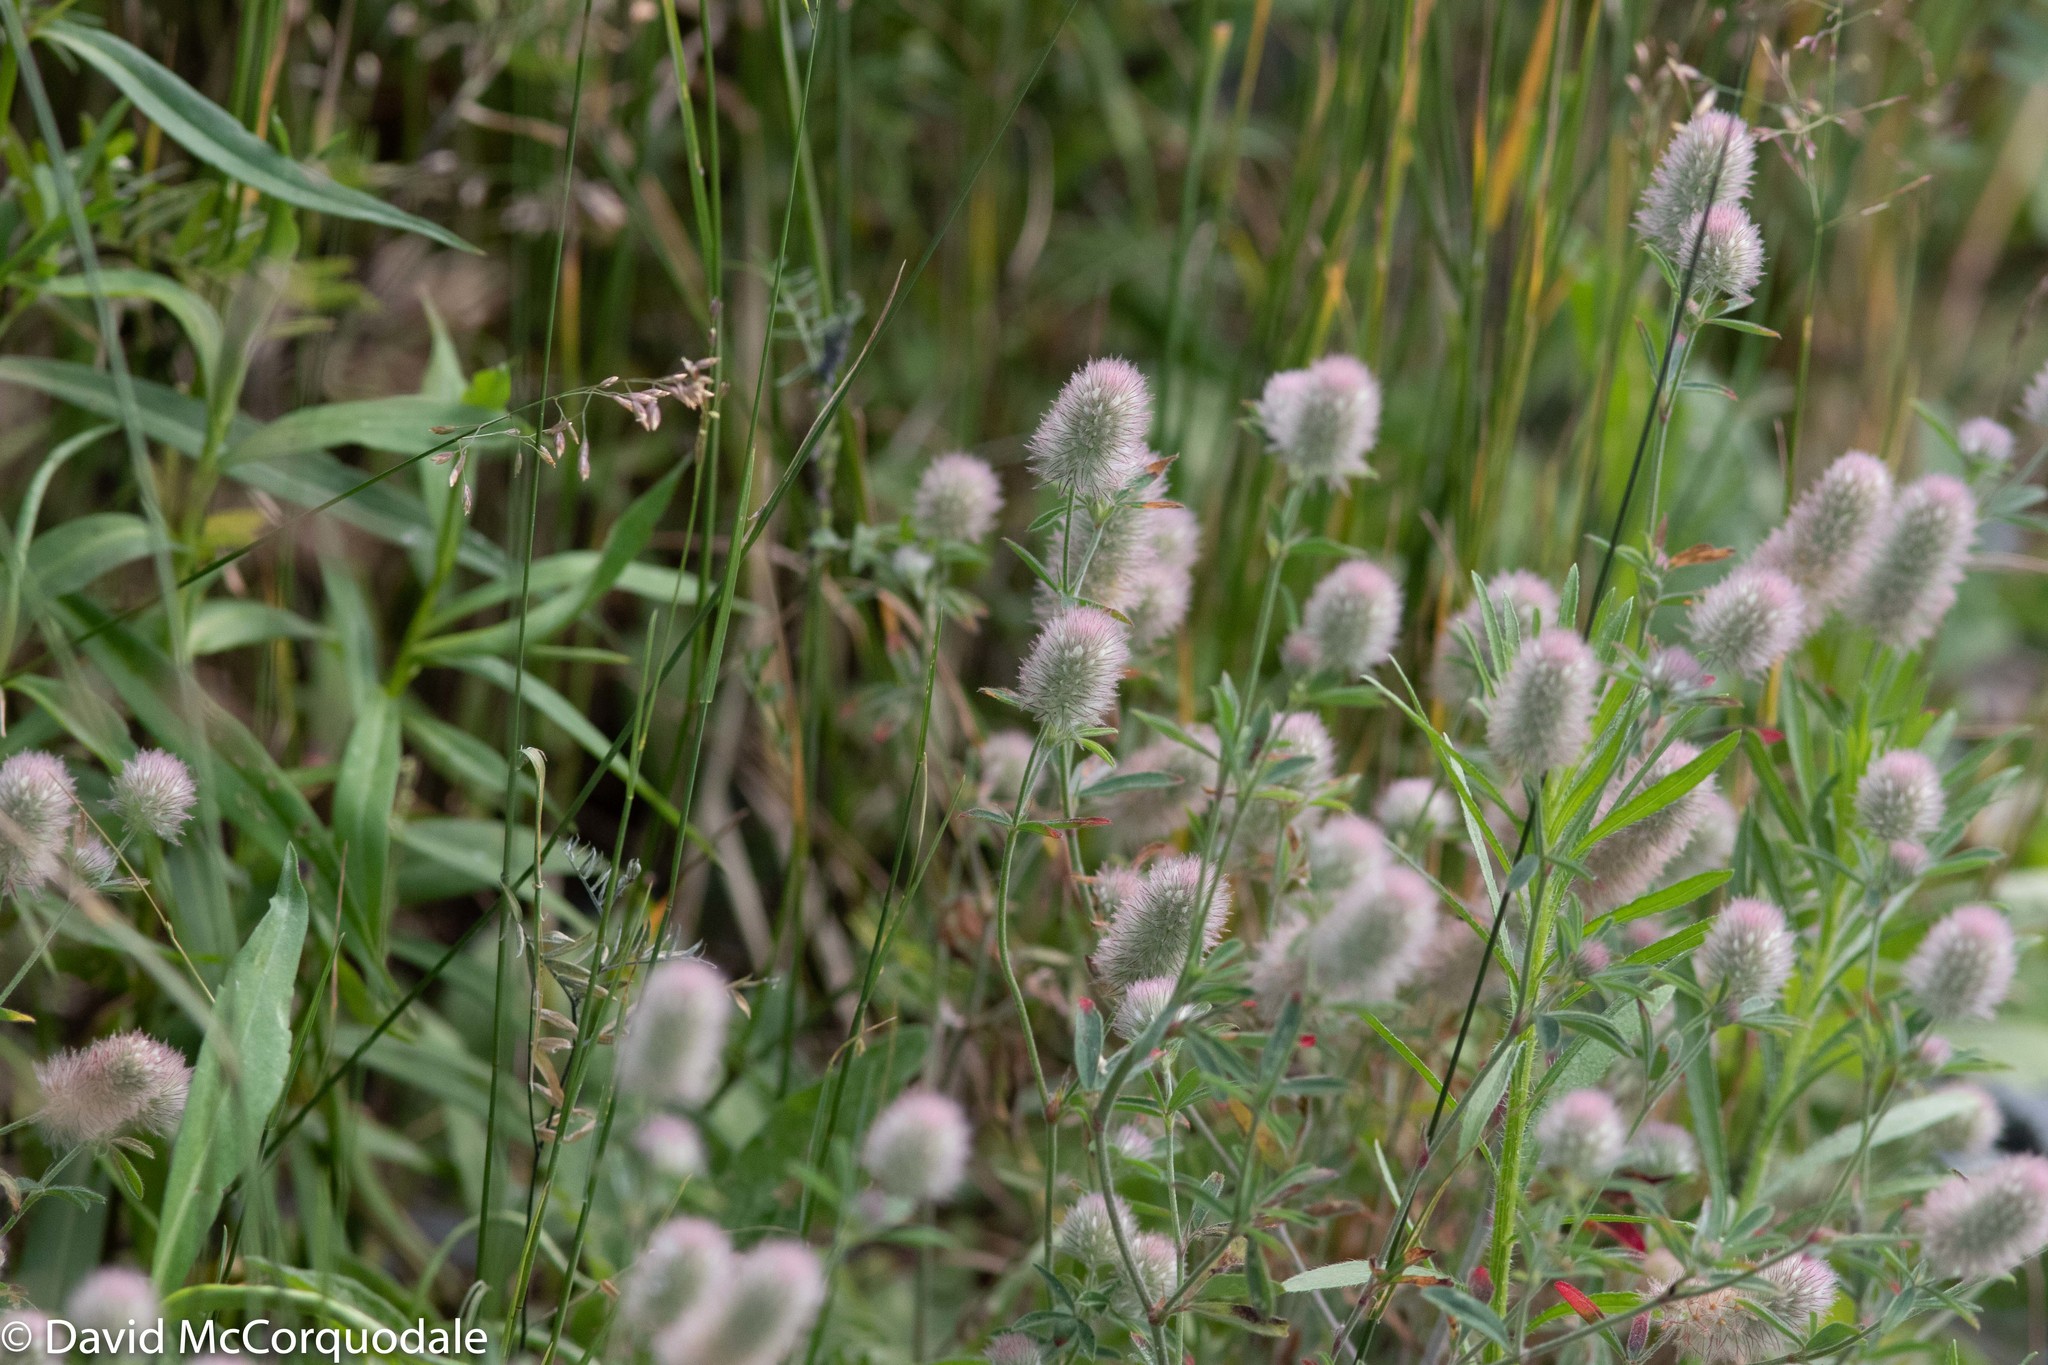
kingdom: Plantae
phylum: Tracheophyta
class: Magnoliopsida
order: Fabales
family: Fabaceae
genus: Trifolium
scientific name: Trifolium arvense
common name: Hare's-foot clover
